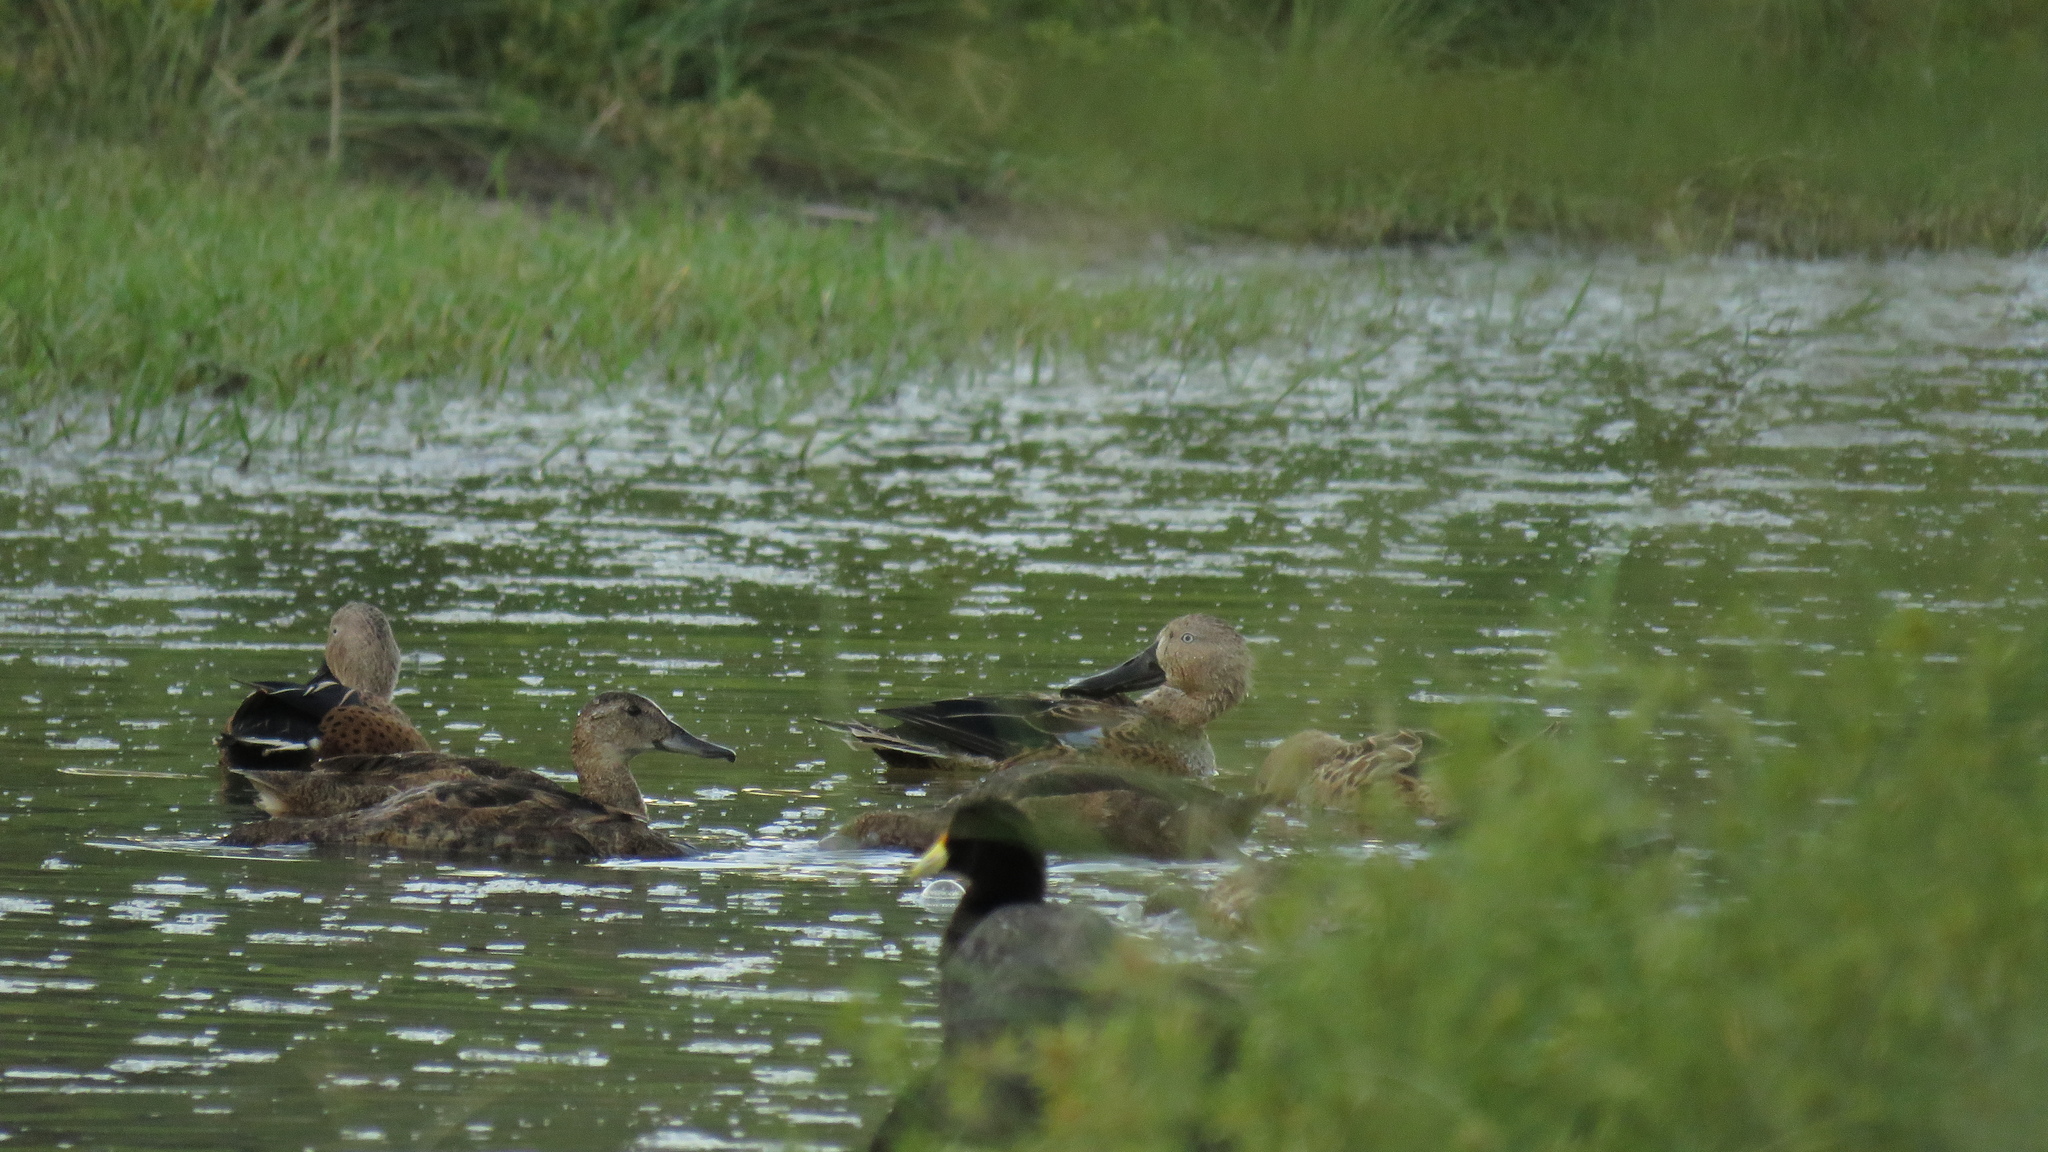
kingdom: Animalia
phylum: Chordata
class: Aves
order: Anseriformes
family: Anatidae
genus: Spatula
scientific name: Spatula platalea
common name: Red shoveler
